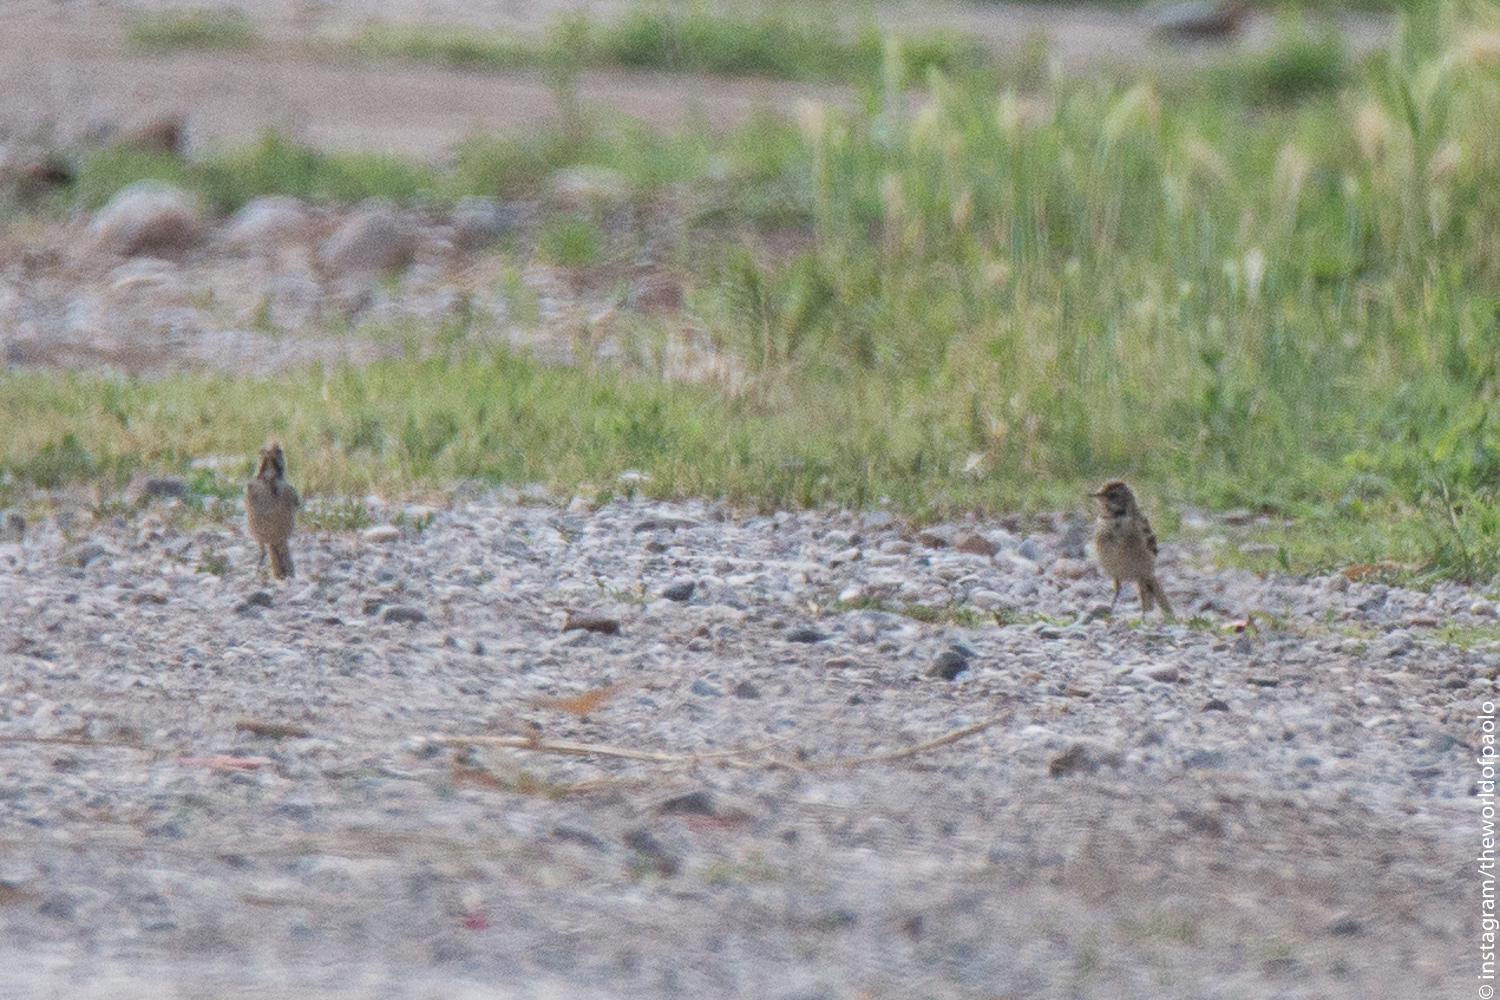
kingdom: Animalia
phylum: Chordata
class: Aves
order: Passeriformes
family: Motacillidae
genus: Motacilla
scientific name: Motacilla flava
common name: Western yellow wagtail
